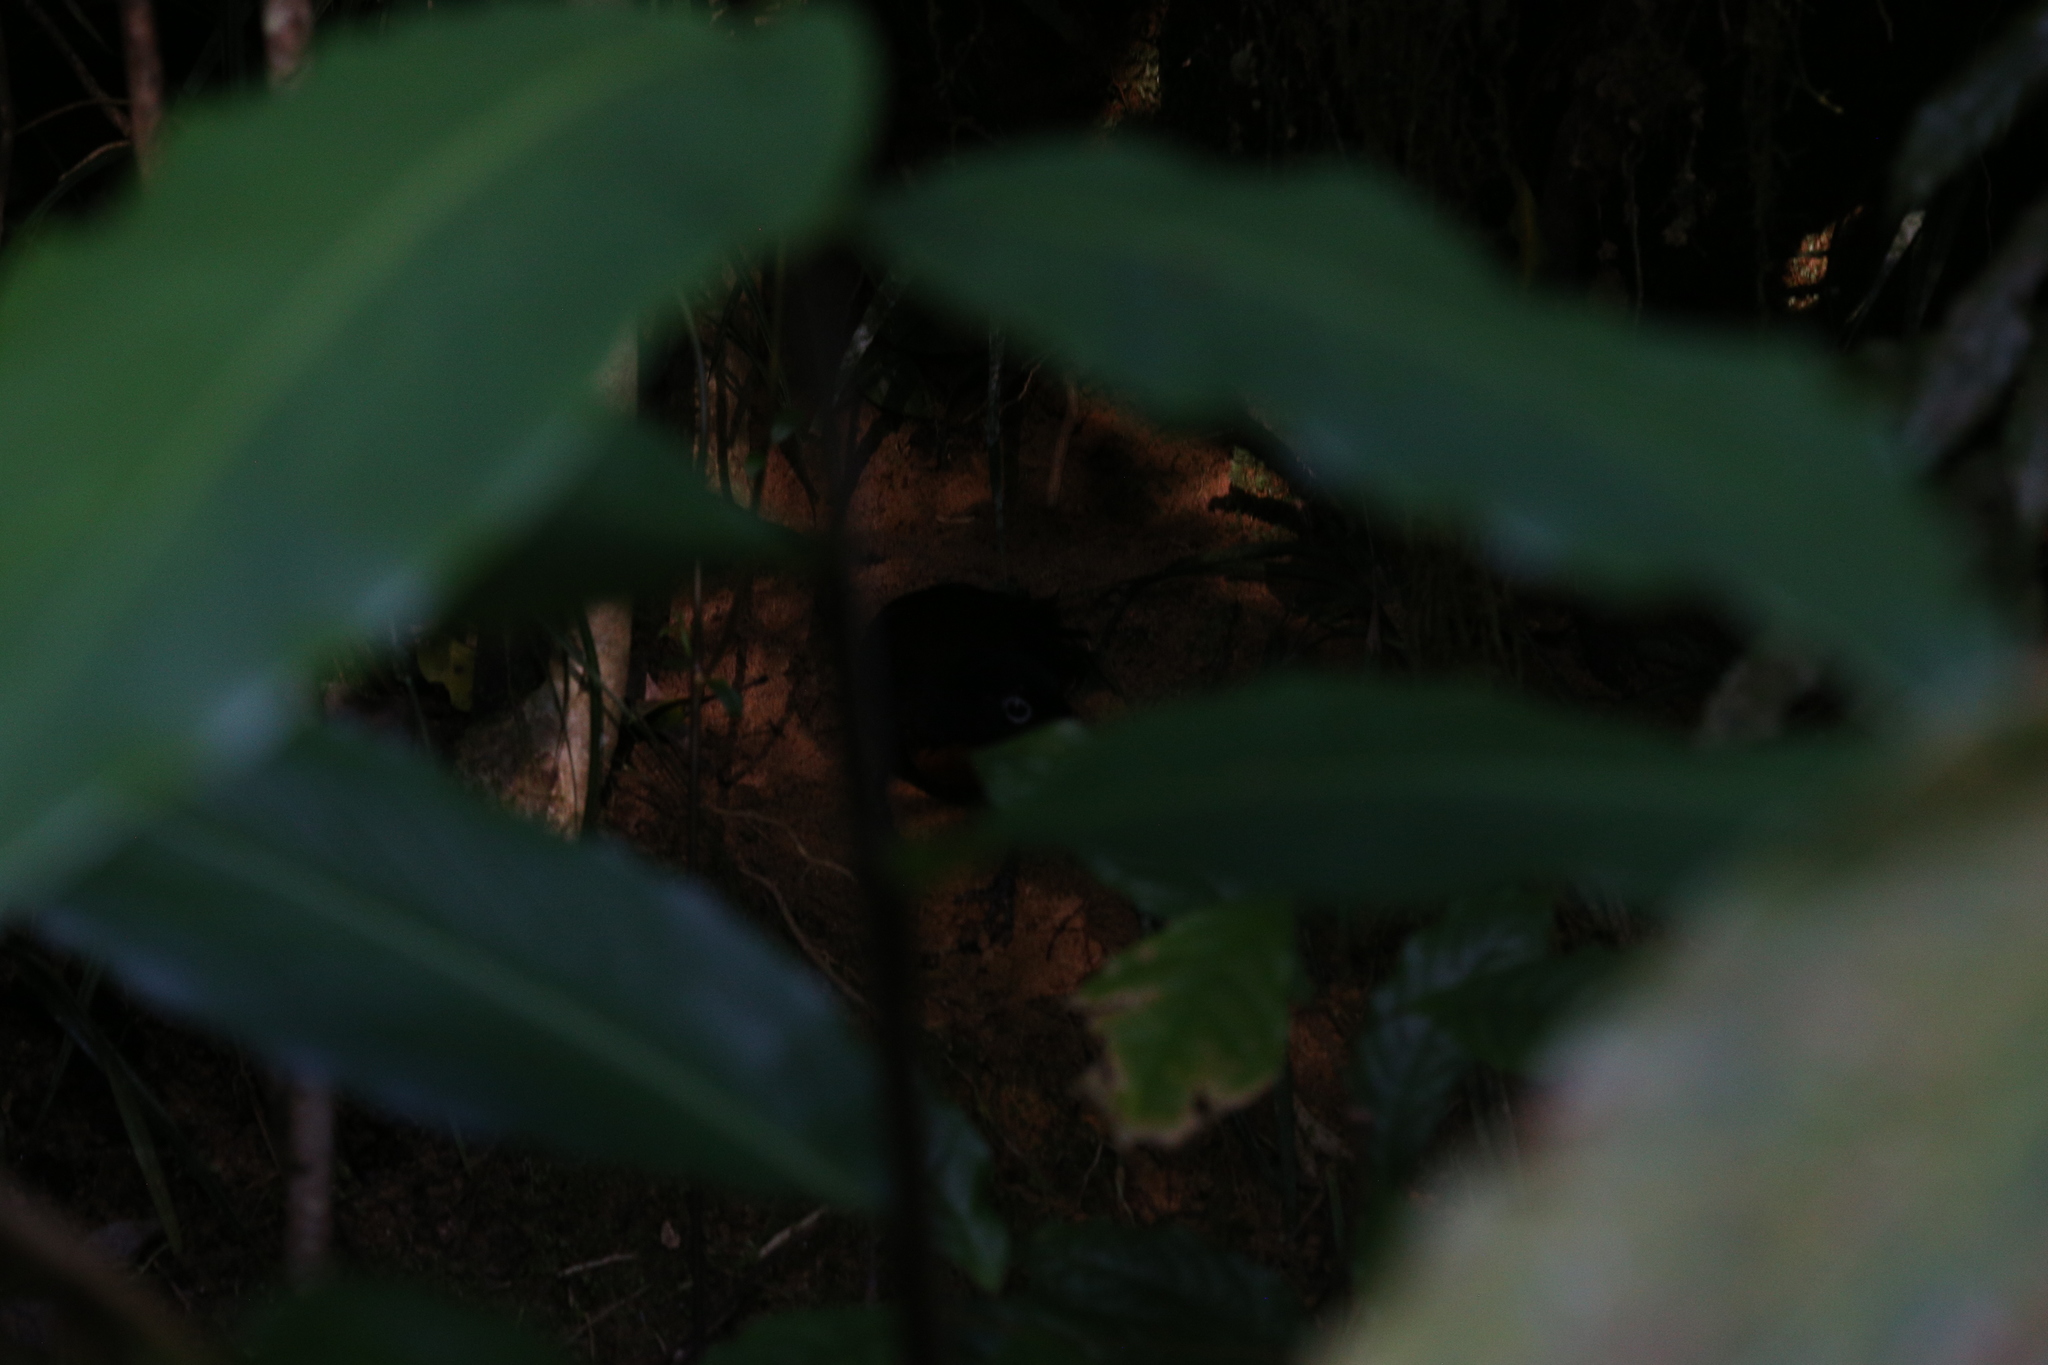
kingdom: Animalia
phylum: Chordata
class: Aves
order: Passeriformes
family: Psophodidae
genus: Psophodes
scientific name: Psophodes olivaceus
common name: Eastern whipbird
